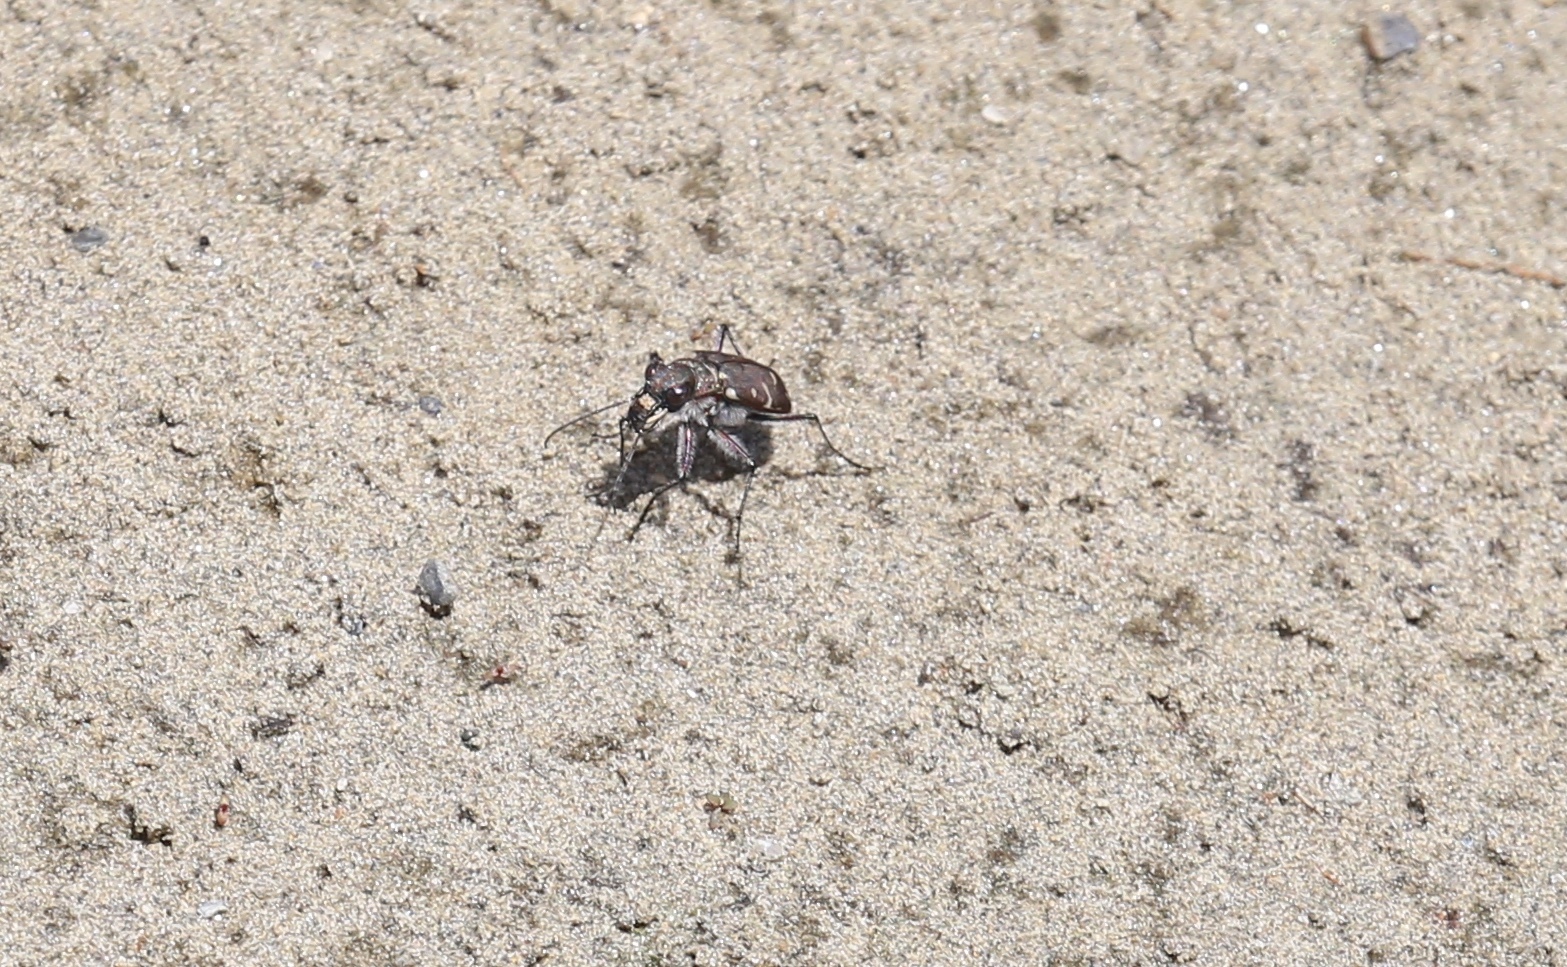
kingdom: Animalia
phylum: Arthropoda
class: Insecta
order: Coleoptera
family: Carabidae
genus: Cicindela
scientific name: Cicindela duodecimguttata
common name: Twelve-spotted tiger beetle
